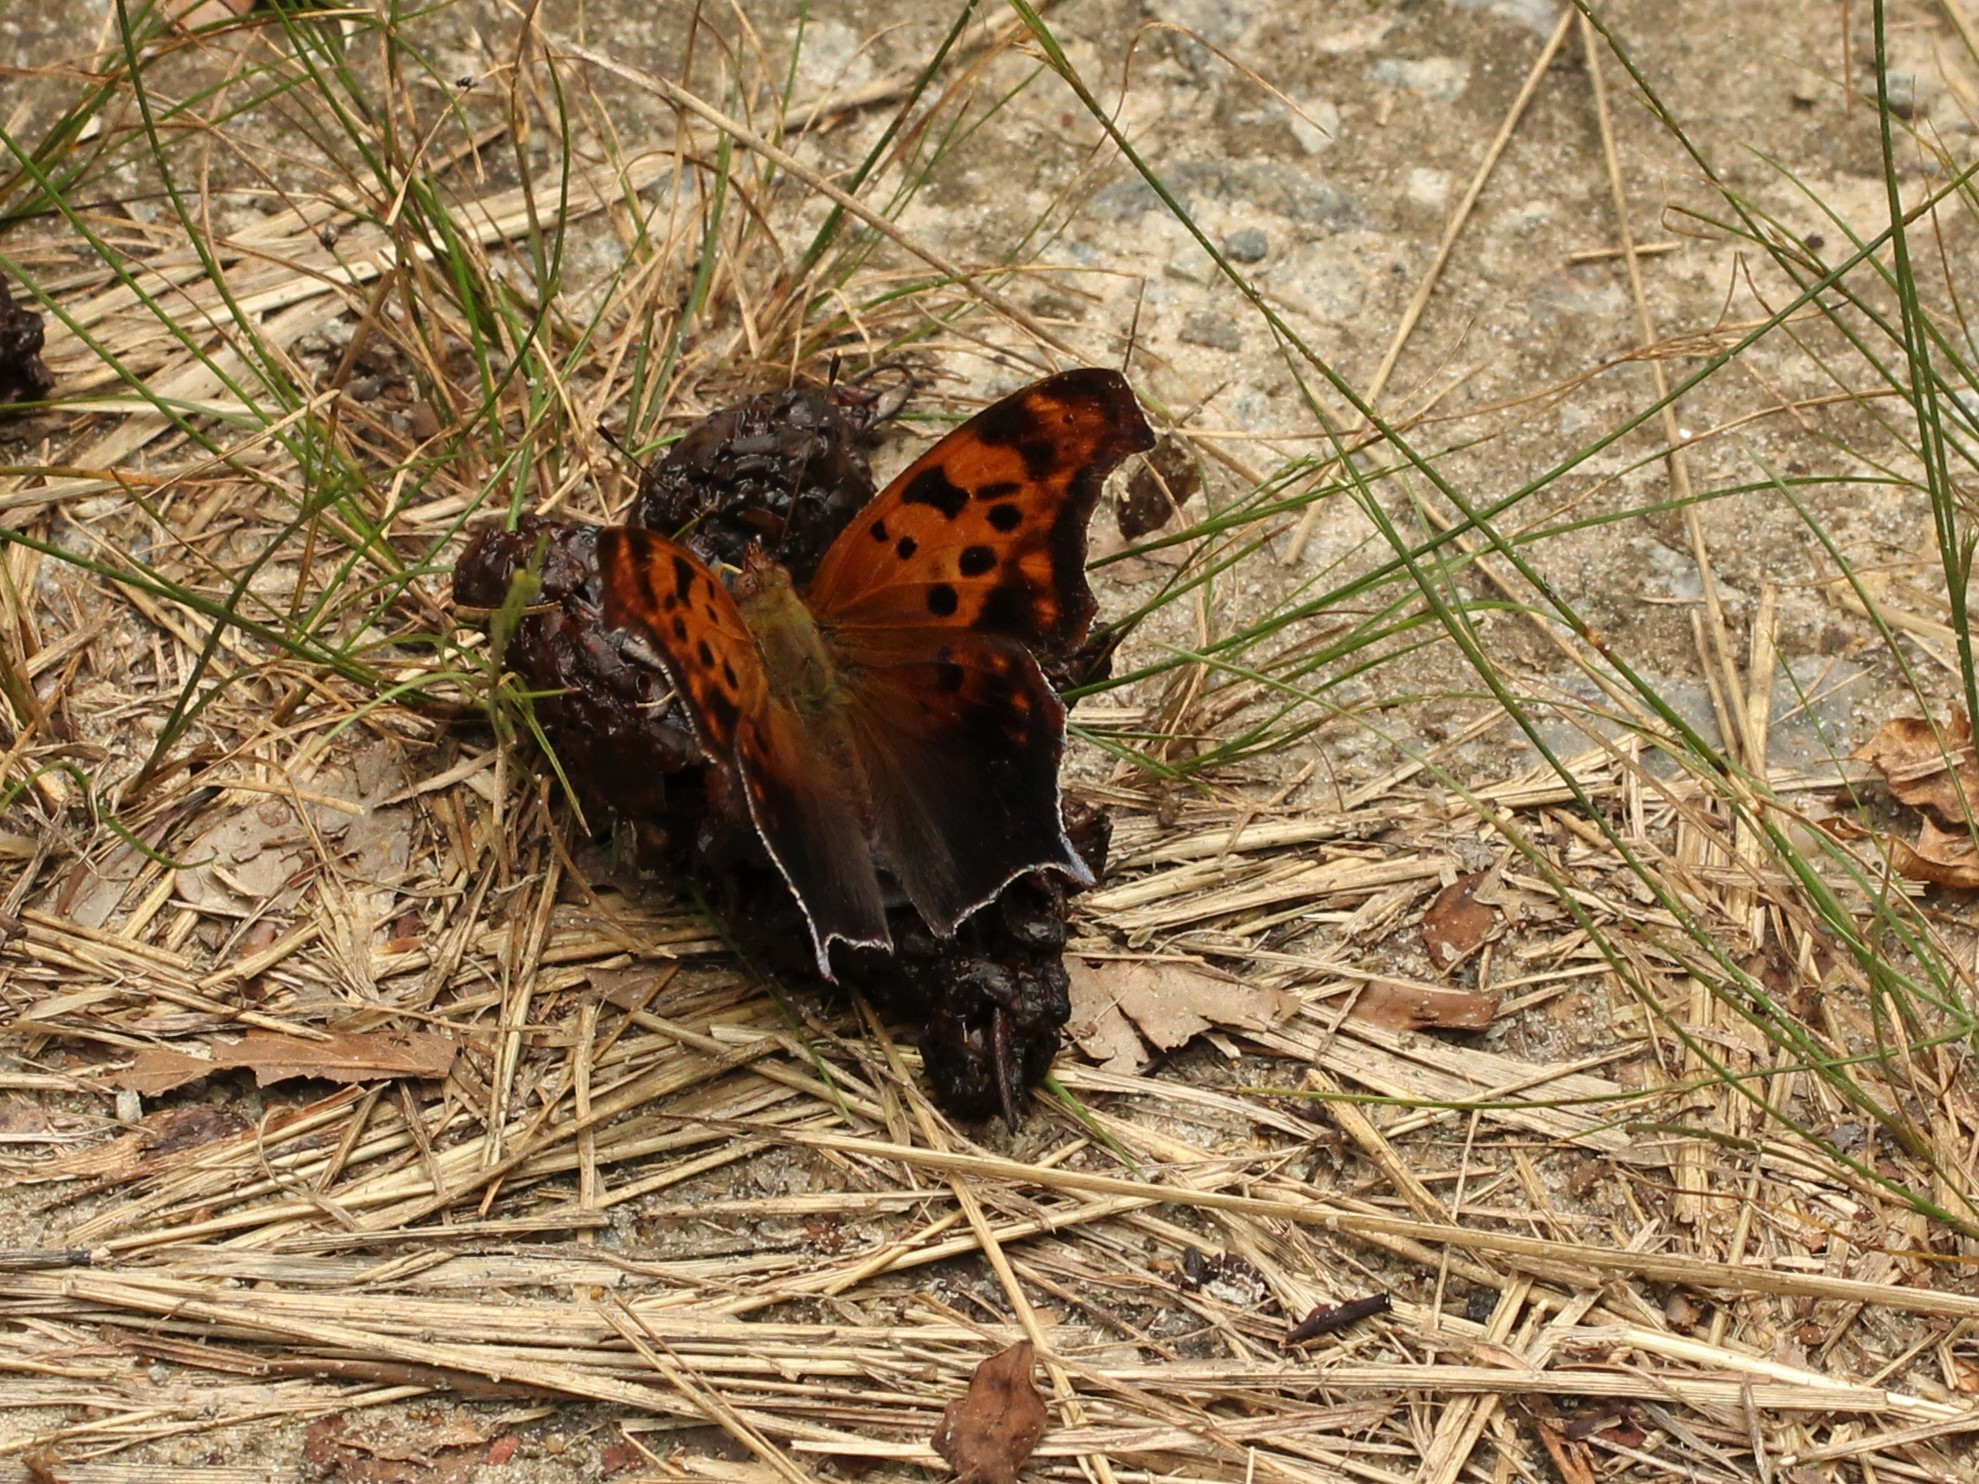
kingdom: Animalia
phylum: Arthropoda
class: Insecta
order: Lepidoptera
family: Nymphalidae
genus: Polygonia
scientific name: Polygonia interrogationis
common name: Question mark
